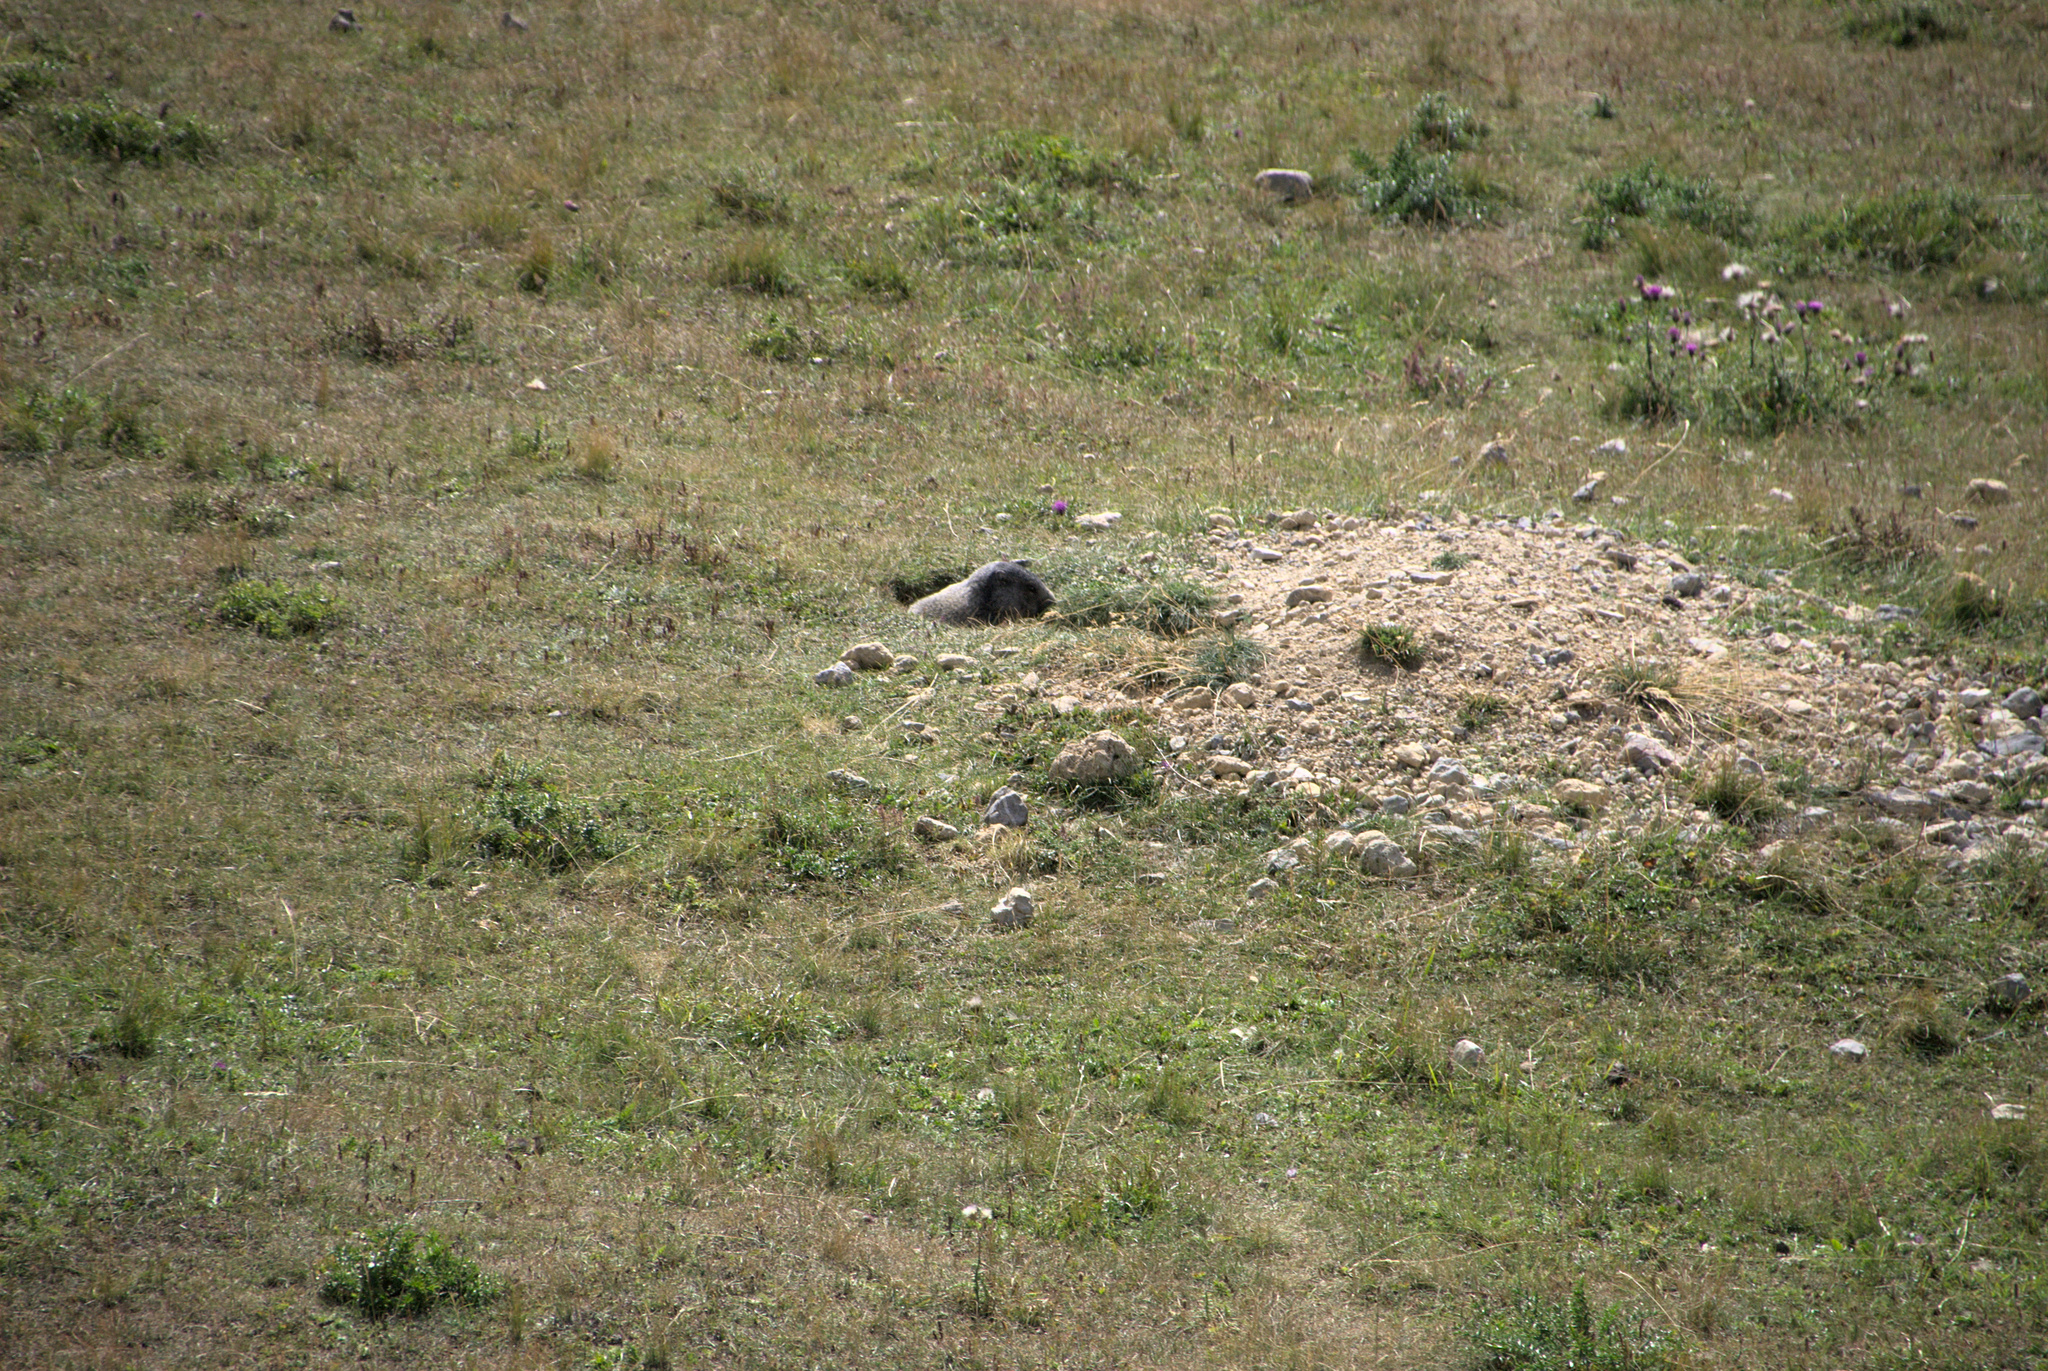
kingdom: Animalia
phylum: Chordata
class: Mammalia
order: Rodentia
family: Sciuridae
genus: Marmota
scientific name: Marmota marmota
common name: Alpine marmot
